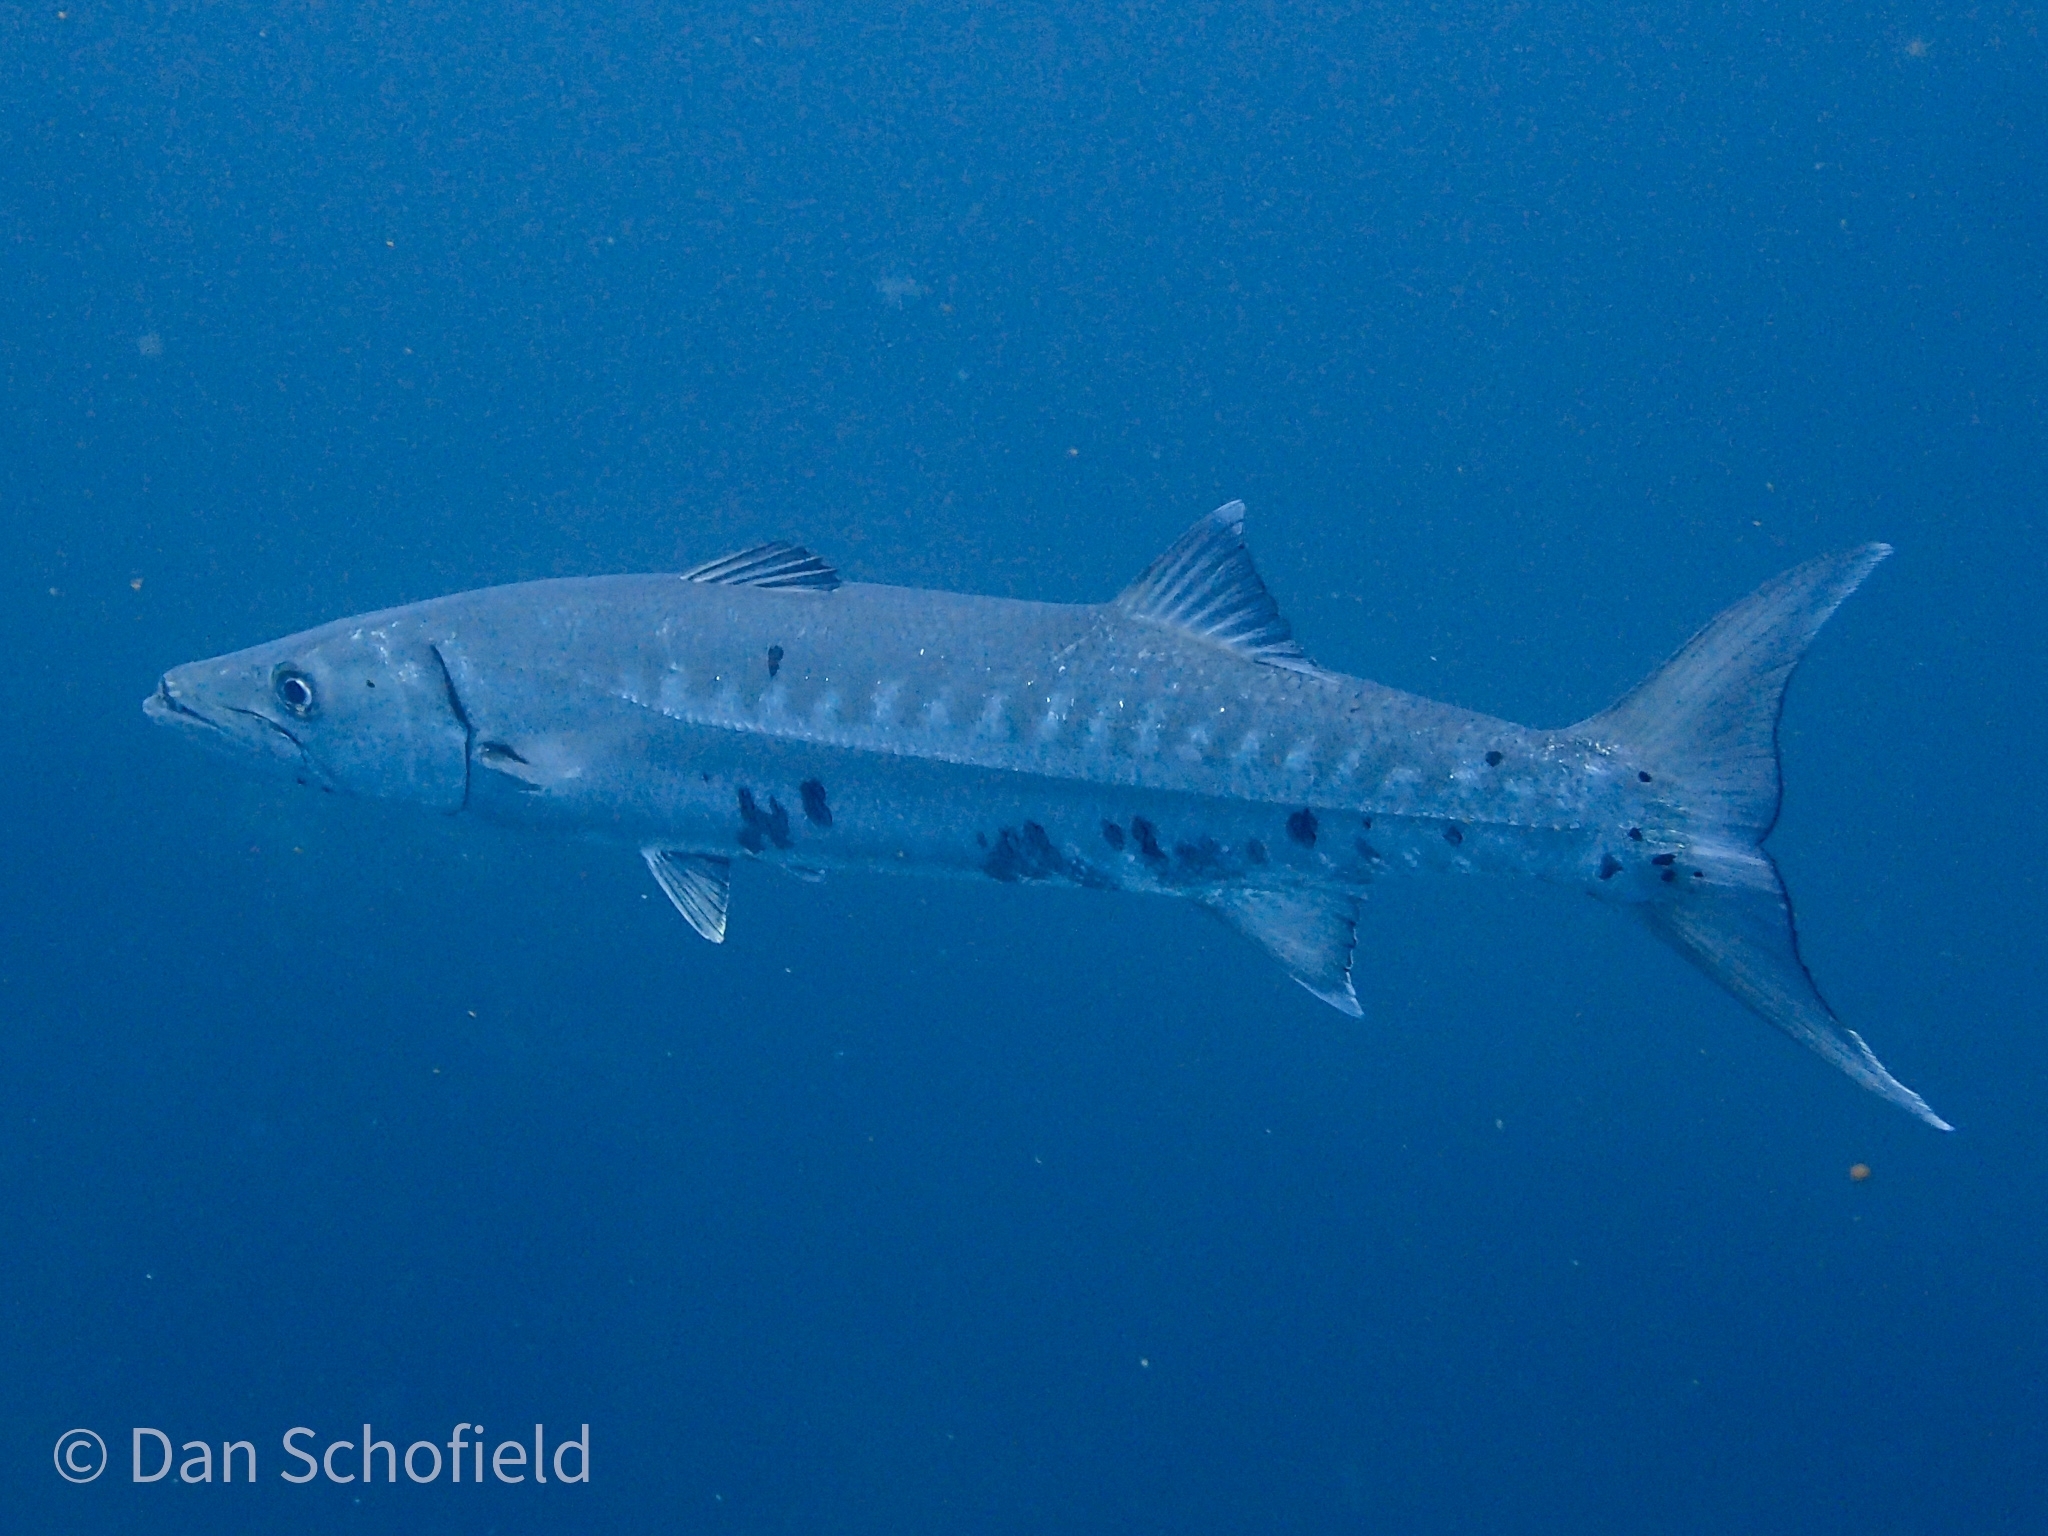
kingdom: Animalia
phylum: Chordata
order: Perciformes
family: Sphyraenidae
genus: Sphyraena
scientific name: Sphyraena barracuda
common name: Great barracuda
